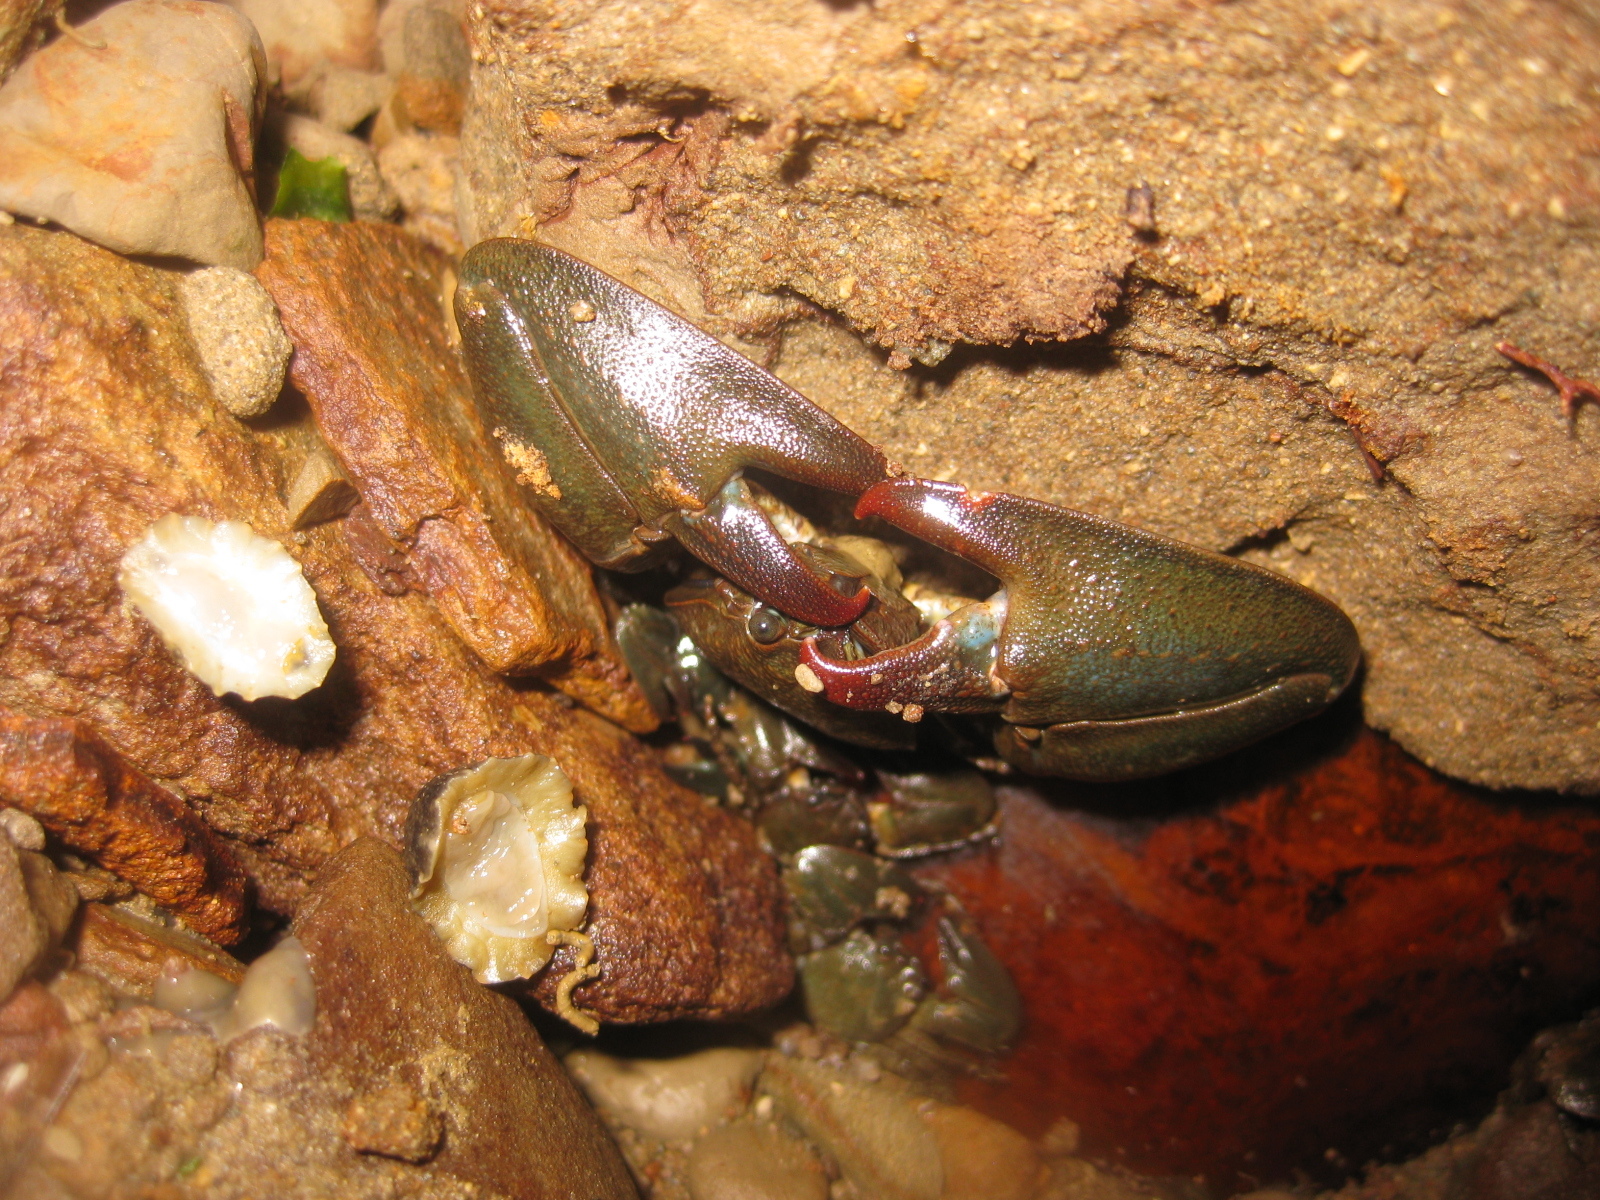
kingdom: Animalia
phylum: Arthropoda
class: Malacostraca
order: Decapoda
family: Porcellanidae
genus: Petrolisthes
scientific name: Petrolisthes elongatus
